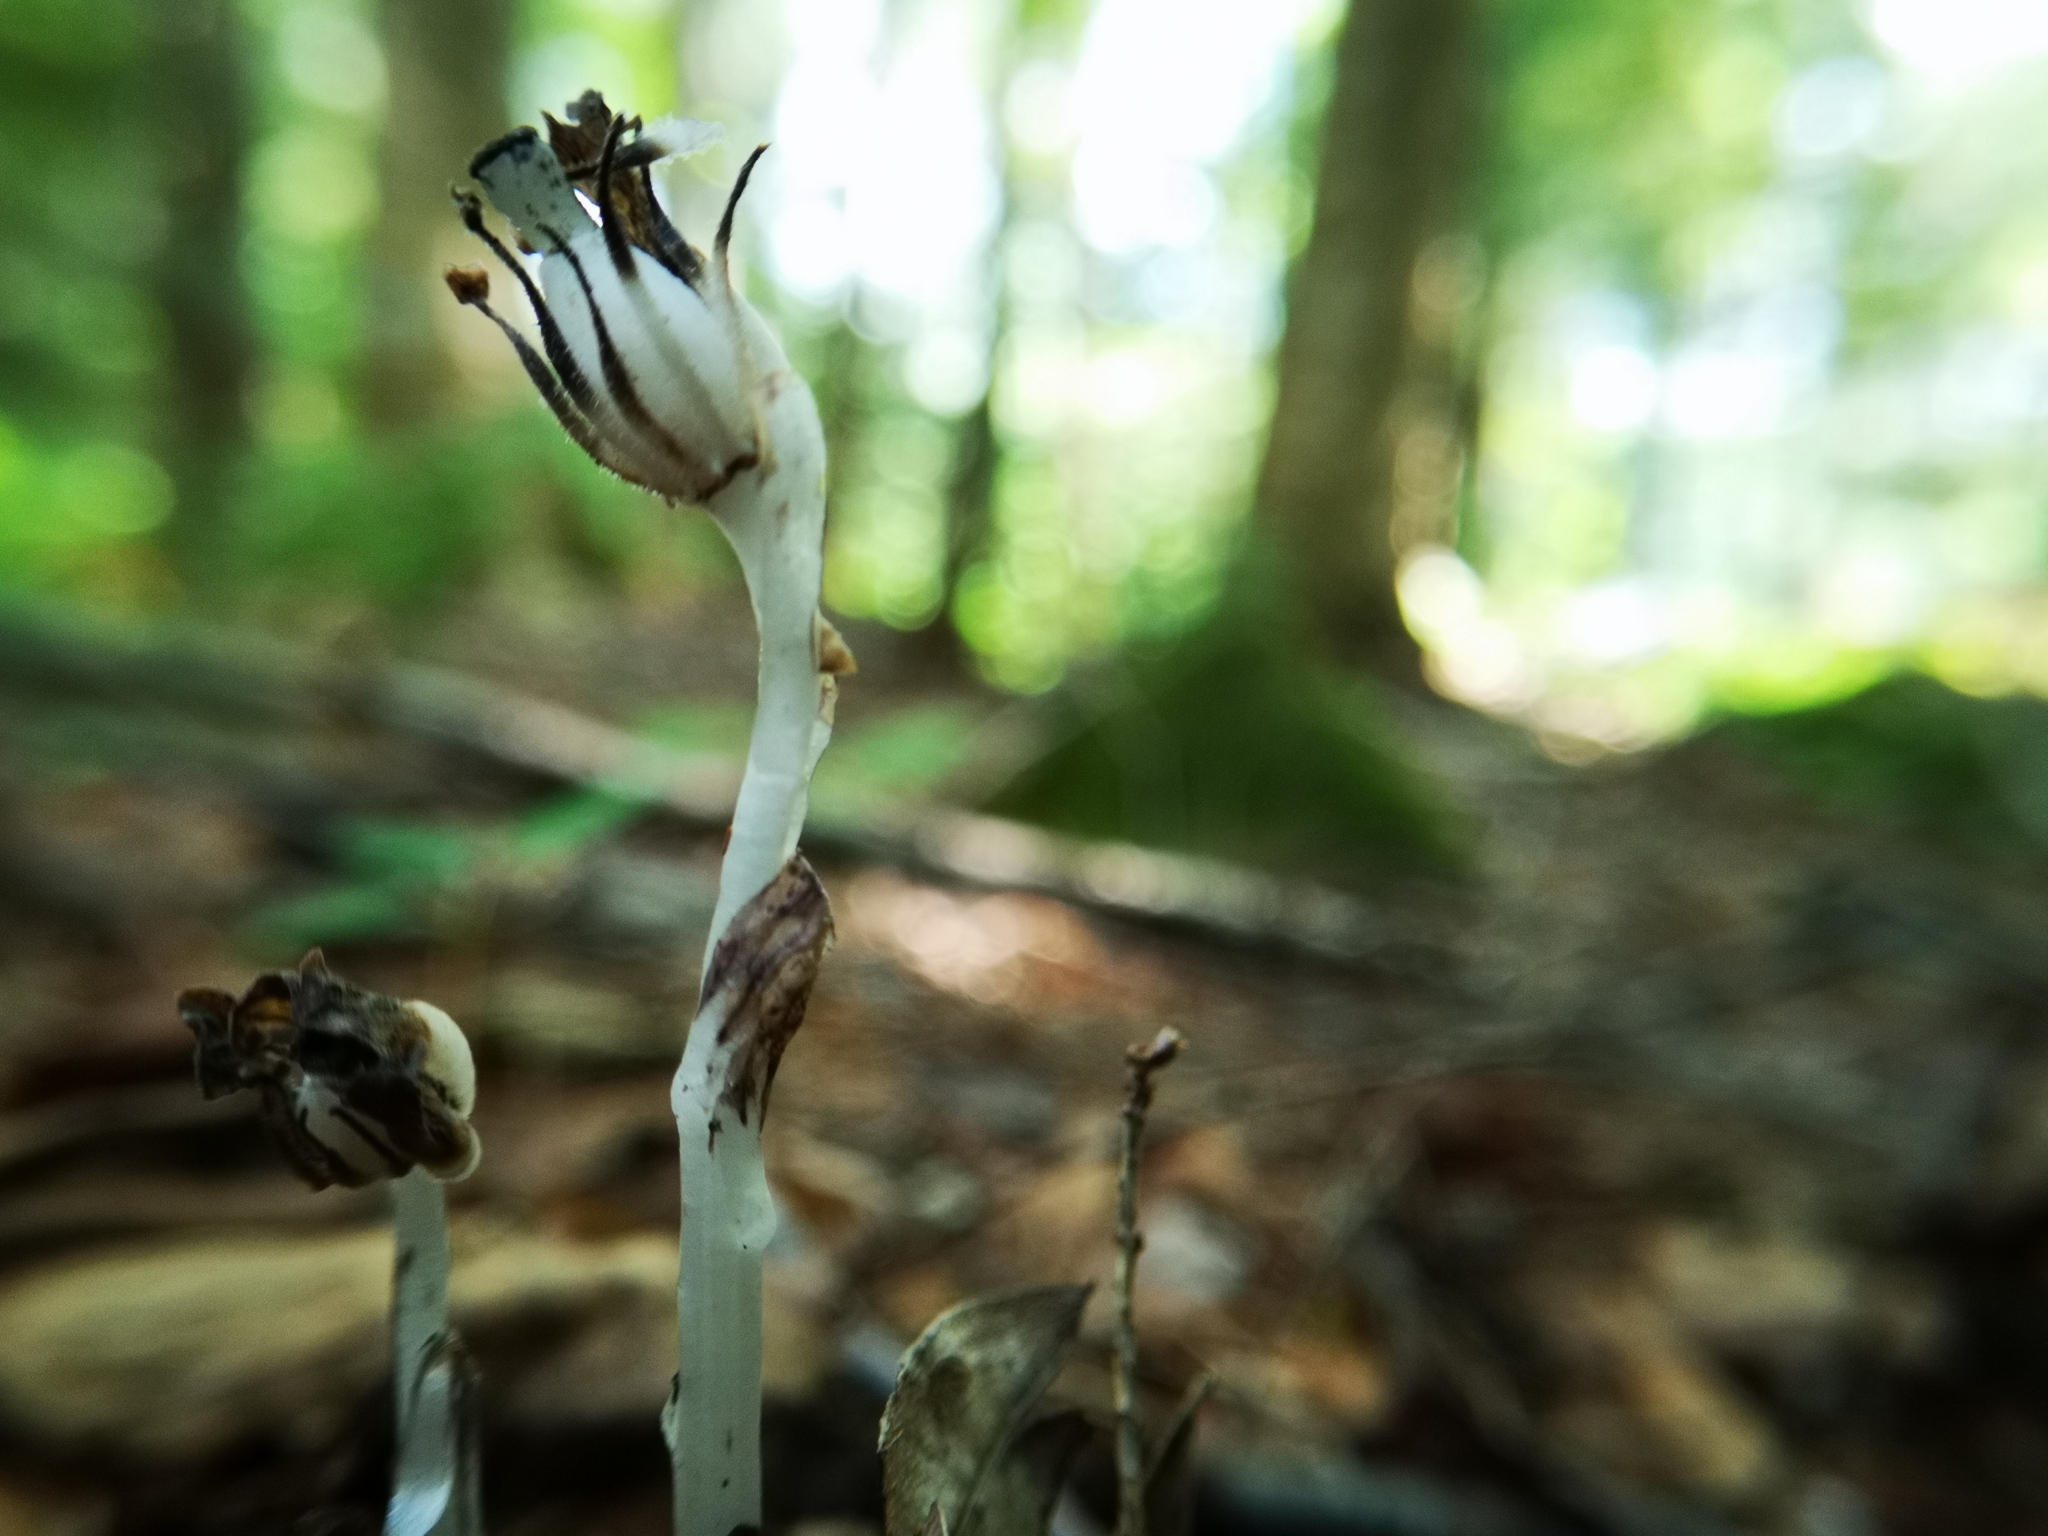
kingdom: Plantae
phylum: Tracheophyta
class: Magnoliopsida
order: Ericales
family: Ericaceae
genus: Monotropa
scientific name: Monotropa uniflora
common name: Convulsion root
